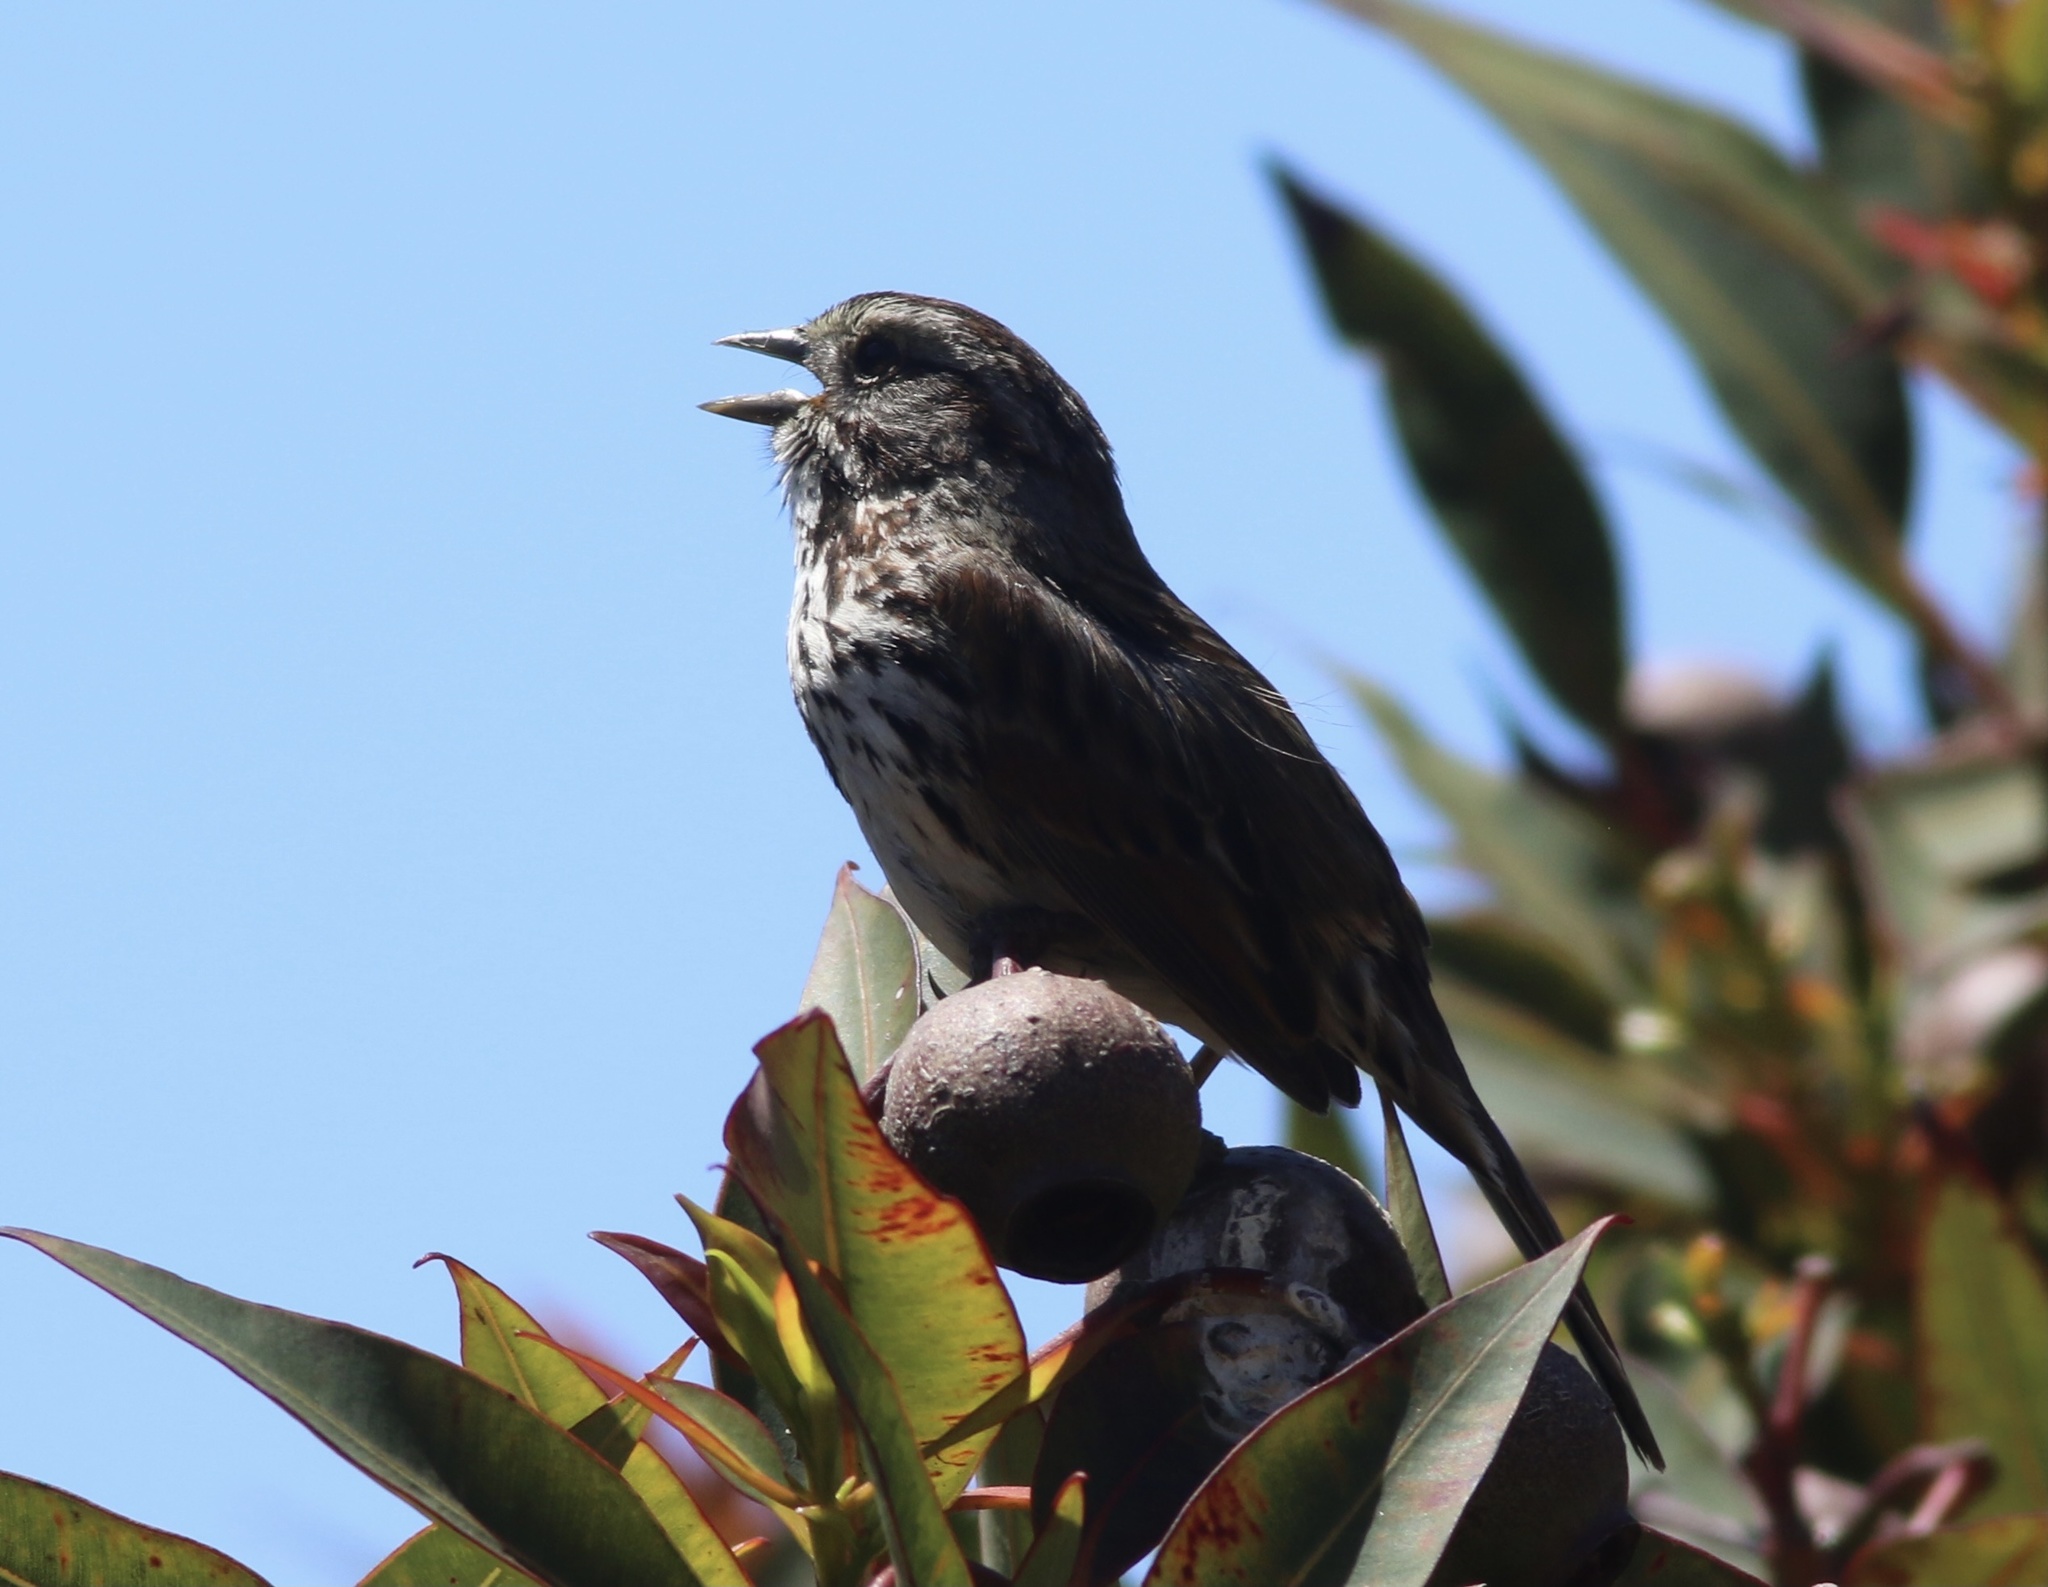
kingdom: Animalia
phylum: Chordata
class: Aves
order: Passeriformes
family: Passerellidae
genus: Melospiza
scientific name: Melospiza melodia
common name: Song sparrow
